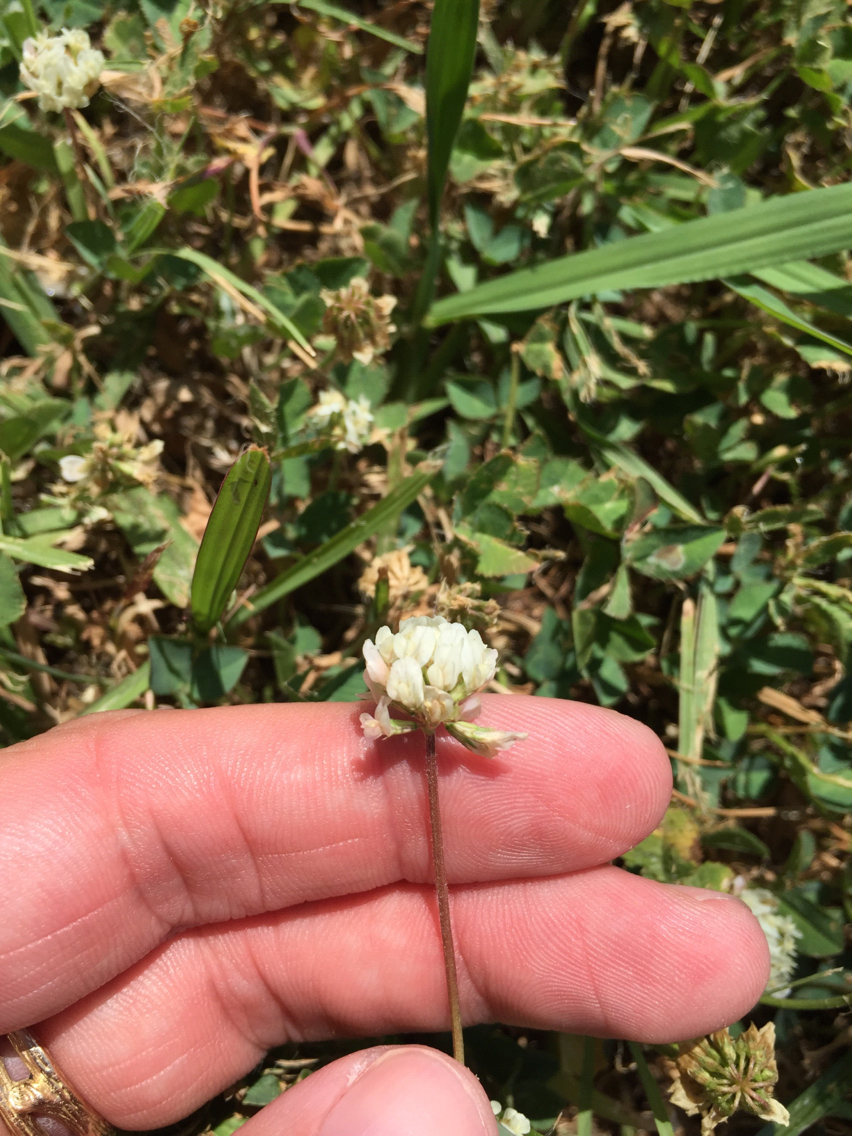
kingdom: Plantae
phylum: Tracheophyta
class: Magnoliopsida
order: Fabales
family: Fabaceae
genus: Trifolium
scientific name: Trifolium repens
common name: White clover
